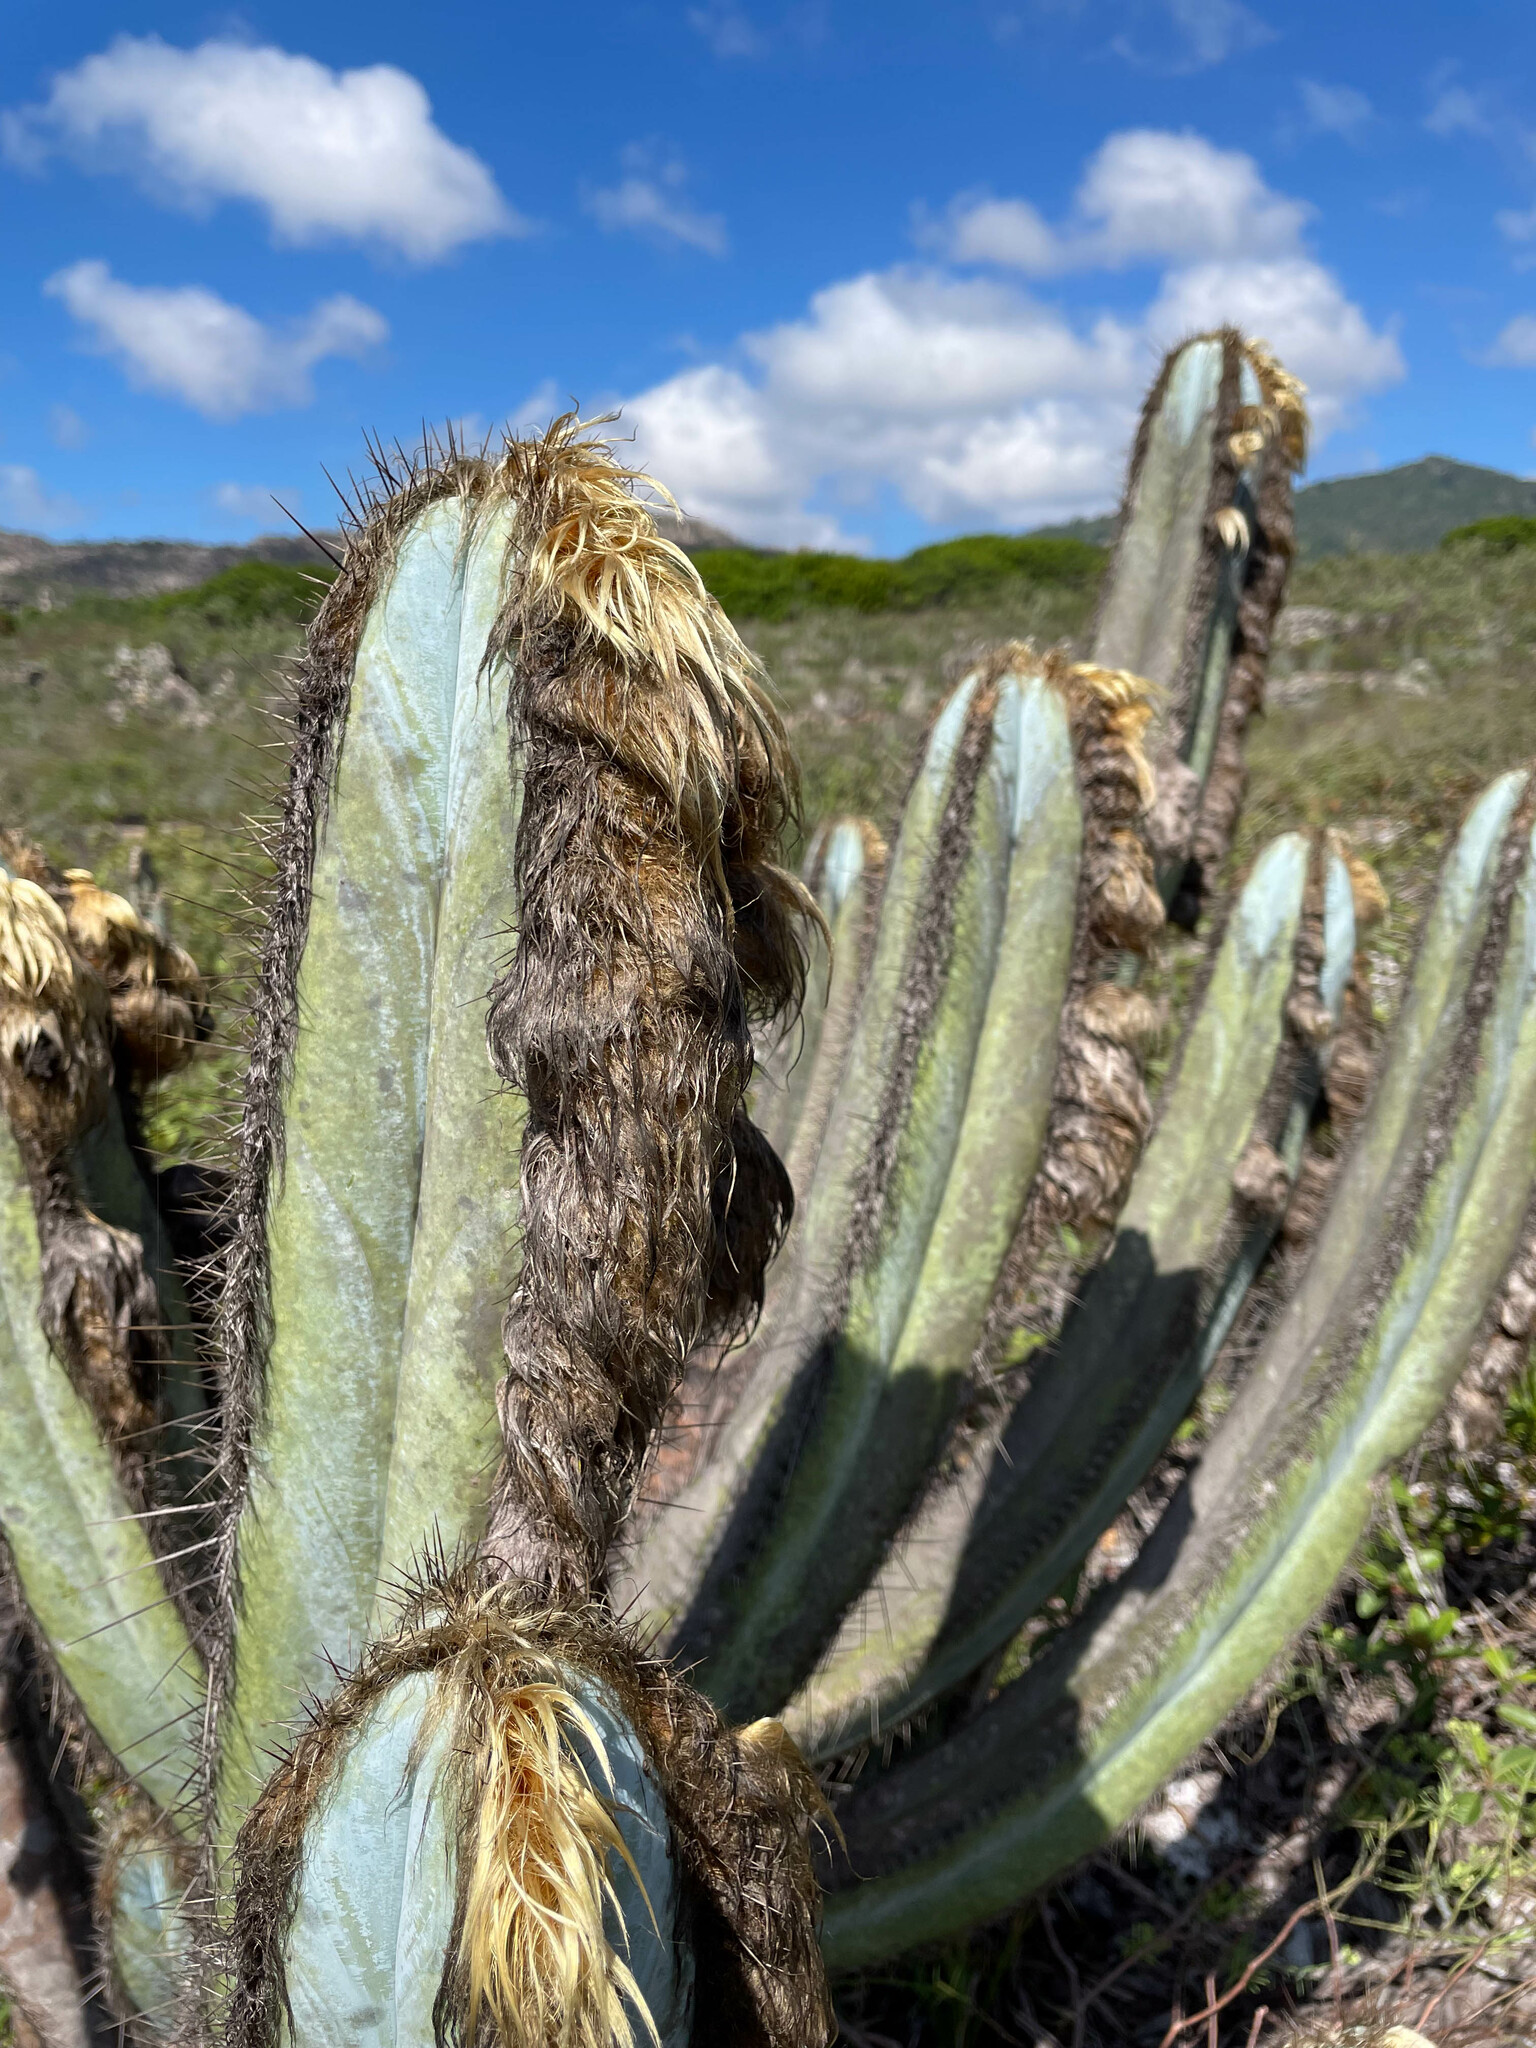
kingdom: Plantae
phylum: Tracheophyta
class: Magnoliopsida
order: Caryophyllales
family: Cactaceae
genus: Pilosocereus
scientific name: Pilosocereus fulvilanatus
